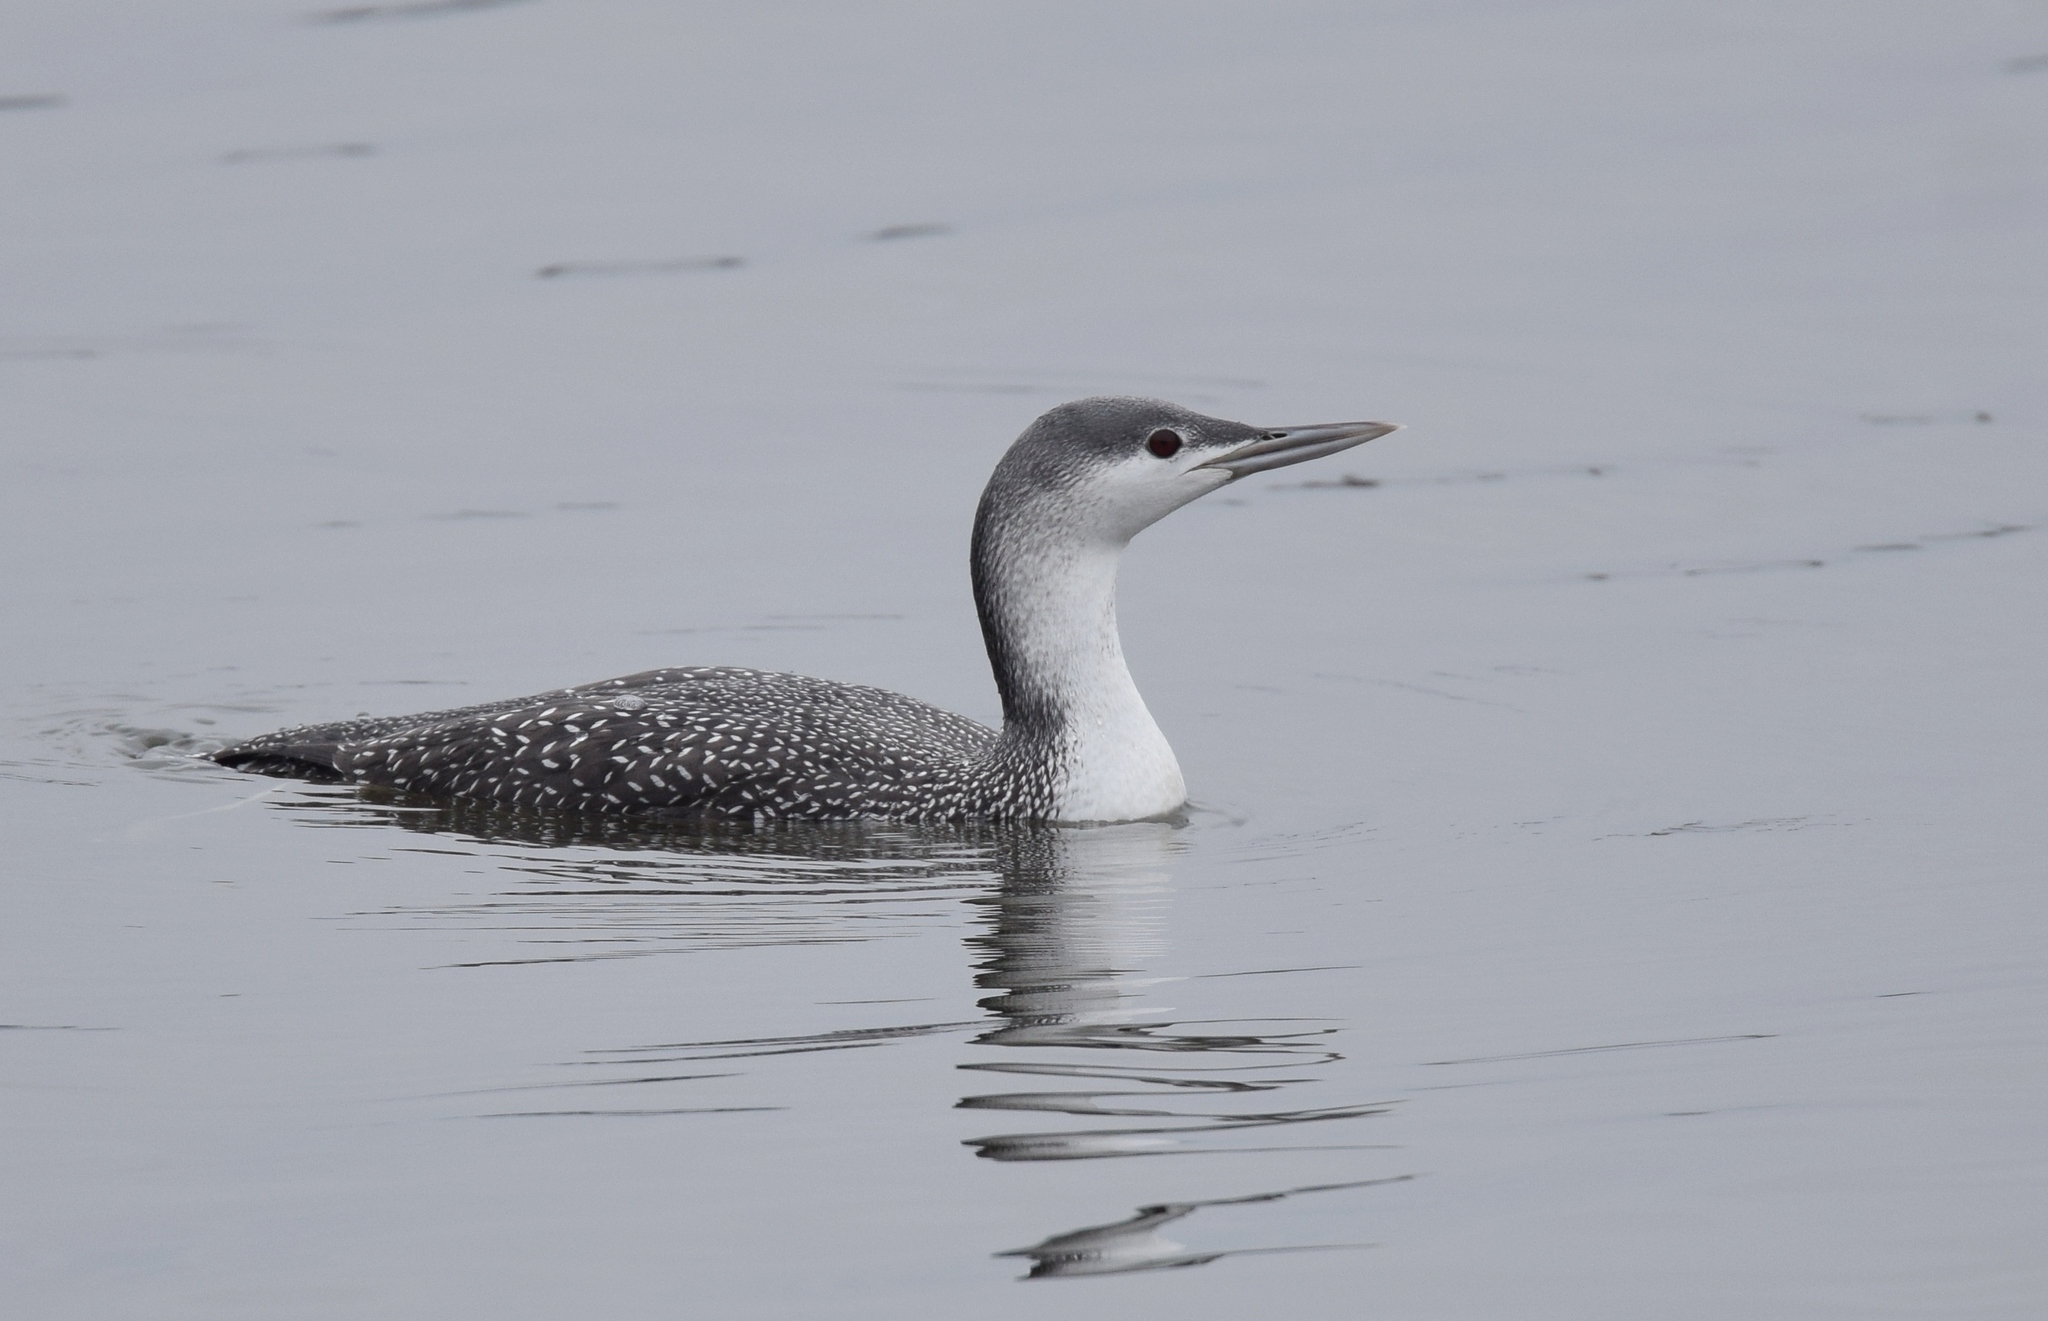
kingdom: Animalia
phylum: Chordata
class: Aves
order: Gaviiformes
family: Gaviidae
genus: Gavia
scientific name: Gavia stellata
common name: Red-throated loon
